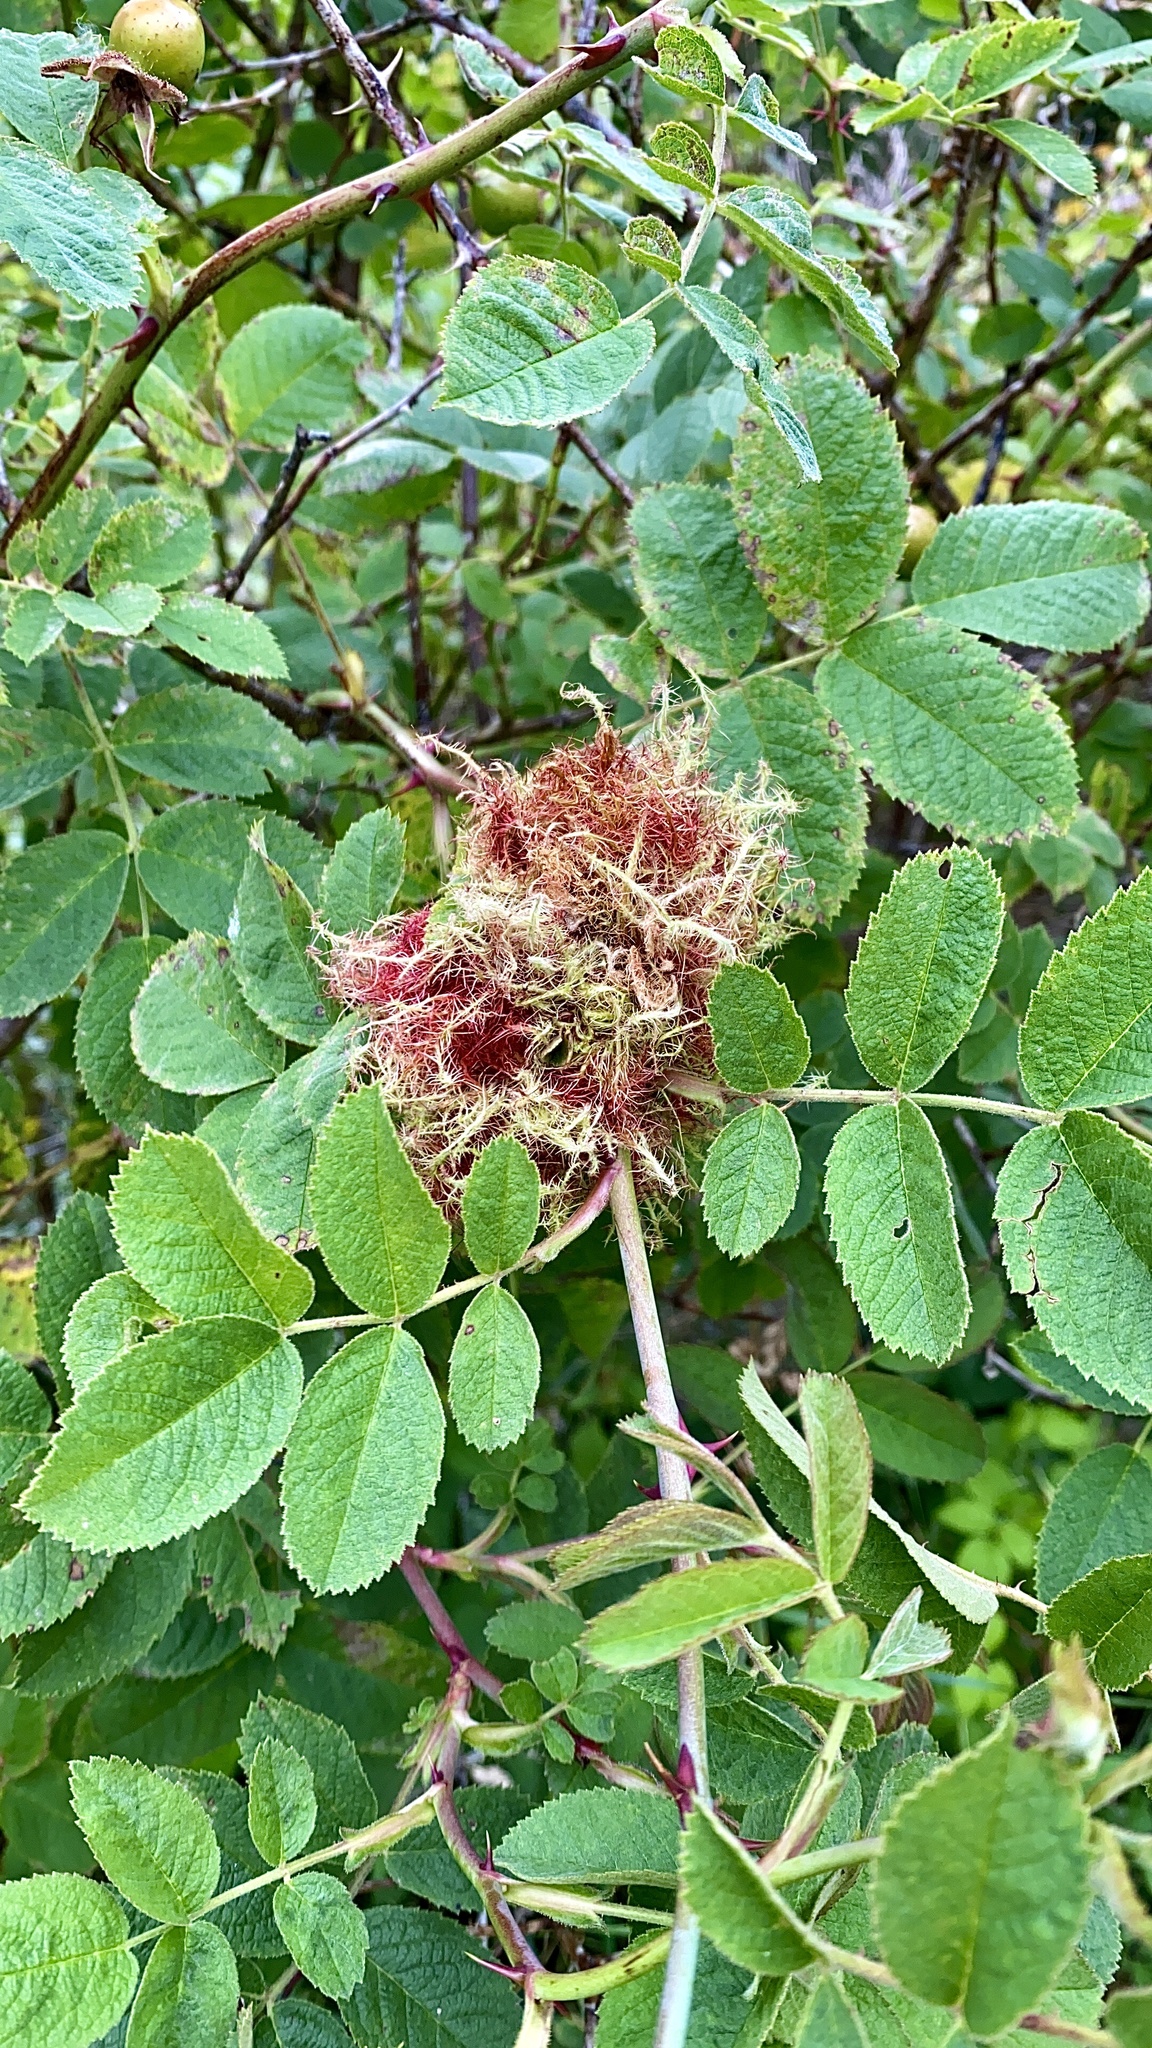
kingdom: Animalia
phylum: Arthropoda
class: Insecta
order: Hymenoptera
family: Cynipidae
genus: Diplolepis
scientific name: Diplolepis rosae
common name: Bedeguar gall
